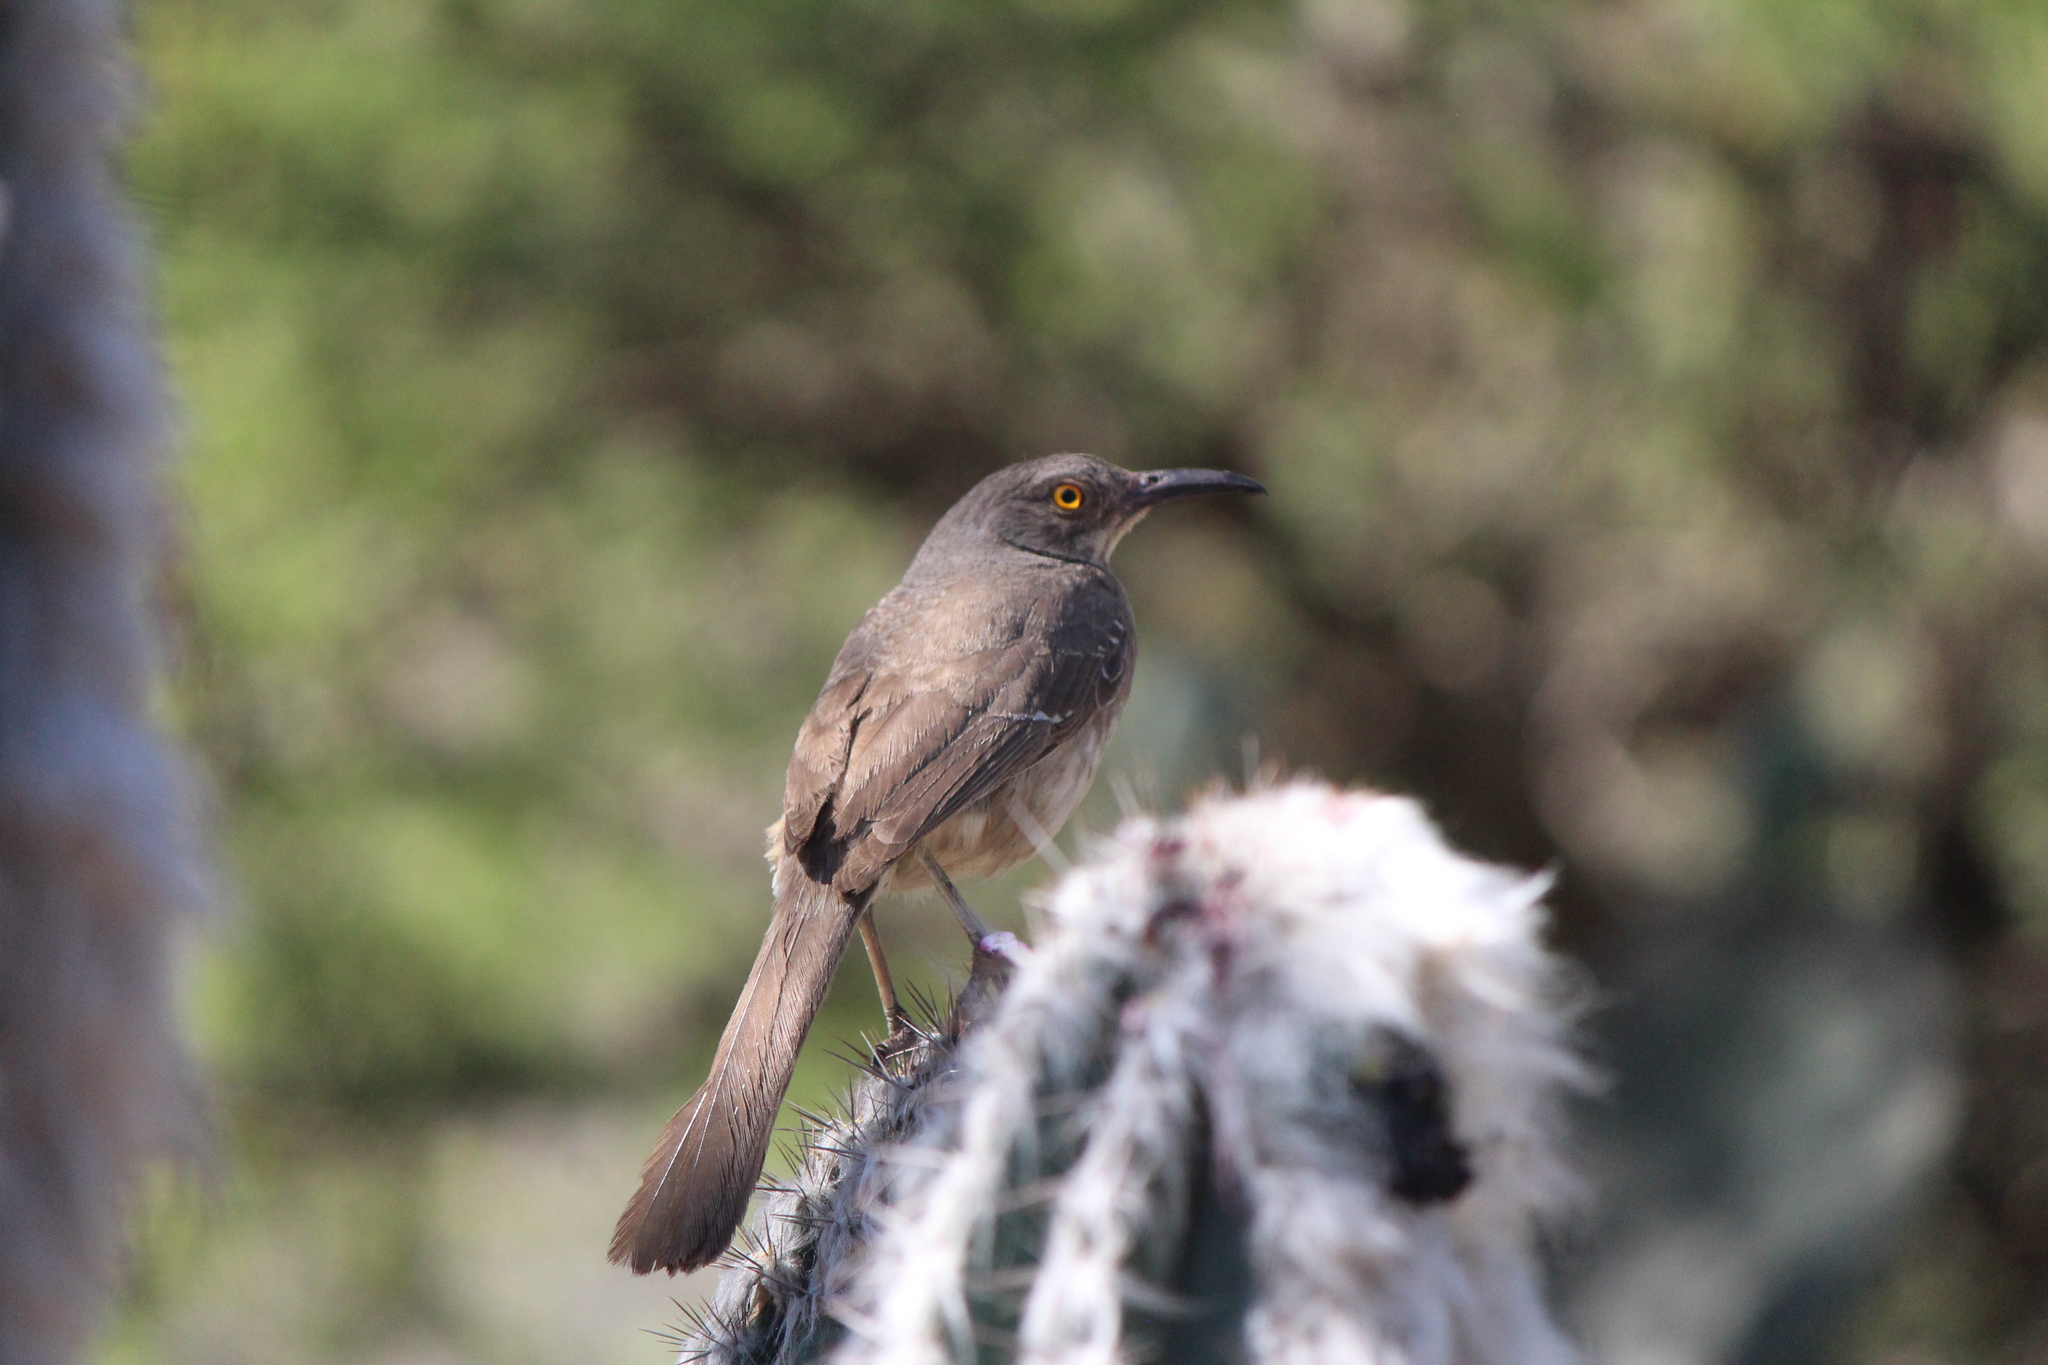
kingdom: Animalia
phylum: Chordata
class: Aves
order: Passeriformes
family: Mimidae
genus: Toxostoma
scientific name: Toxostoma curvirostre
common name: Curve-billed thrasher
